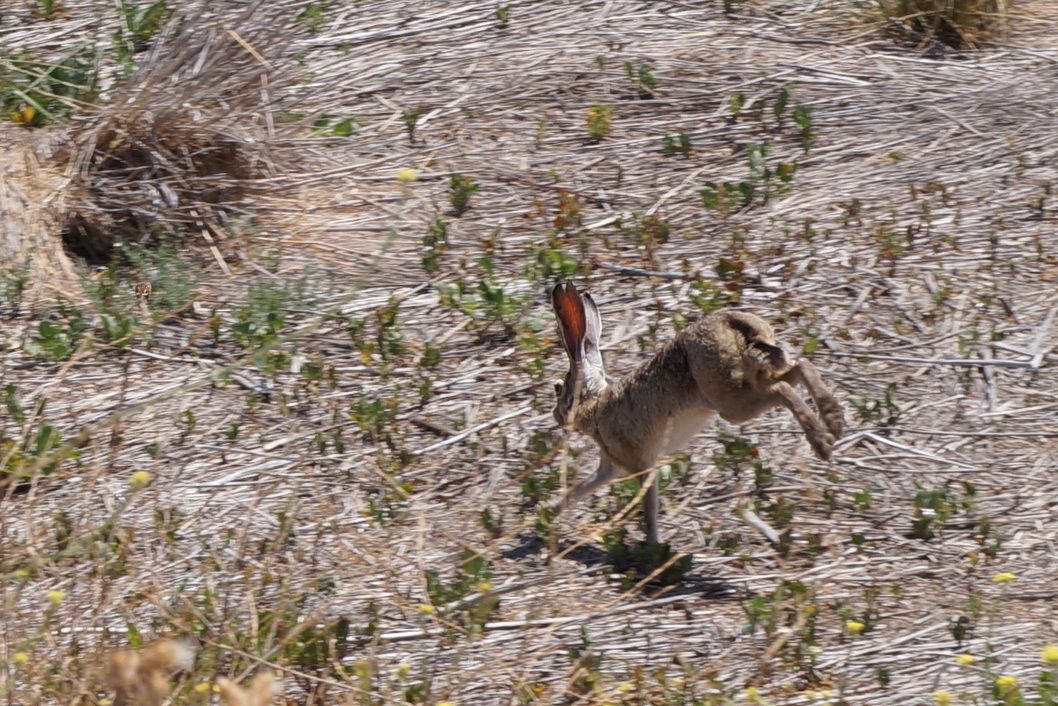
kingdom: Animalia
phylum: Chordata
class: Mammalia
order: Lagomorpha
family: Leporidae
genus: Lepus
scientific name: Lepus californicus
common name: Black-tailed jackrabbit
